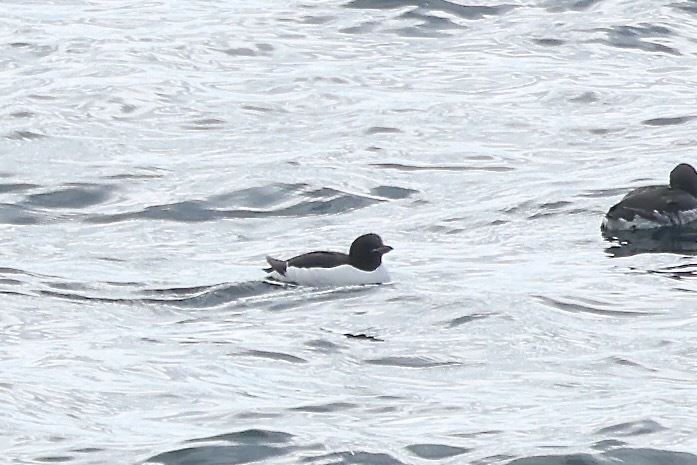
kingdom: Animalia
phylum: Chordata
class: Aves
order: Charadriiformes
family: Alcidae
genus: Uria
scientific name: Uria lomvia
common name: Thick-billed murre
